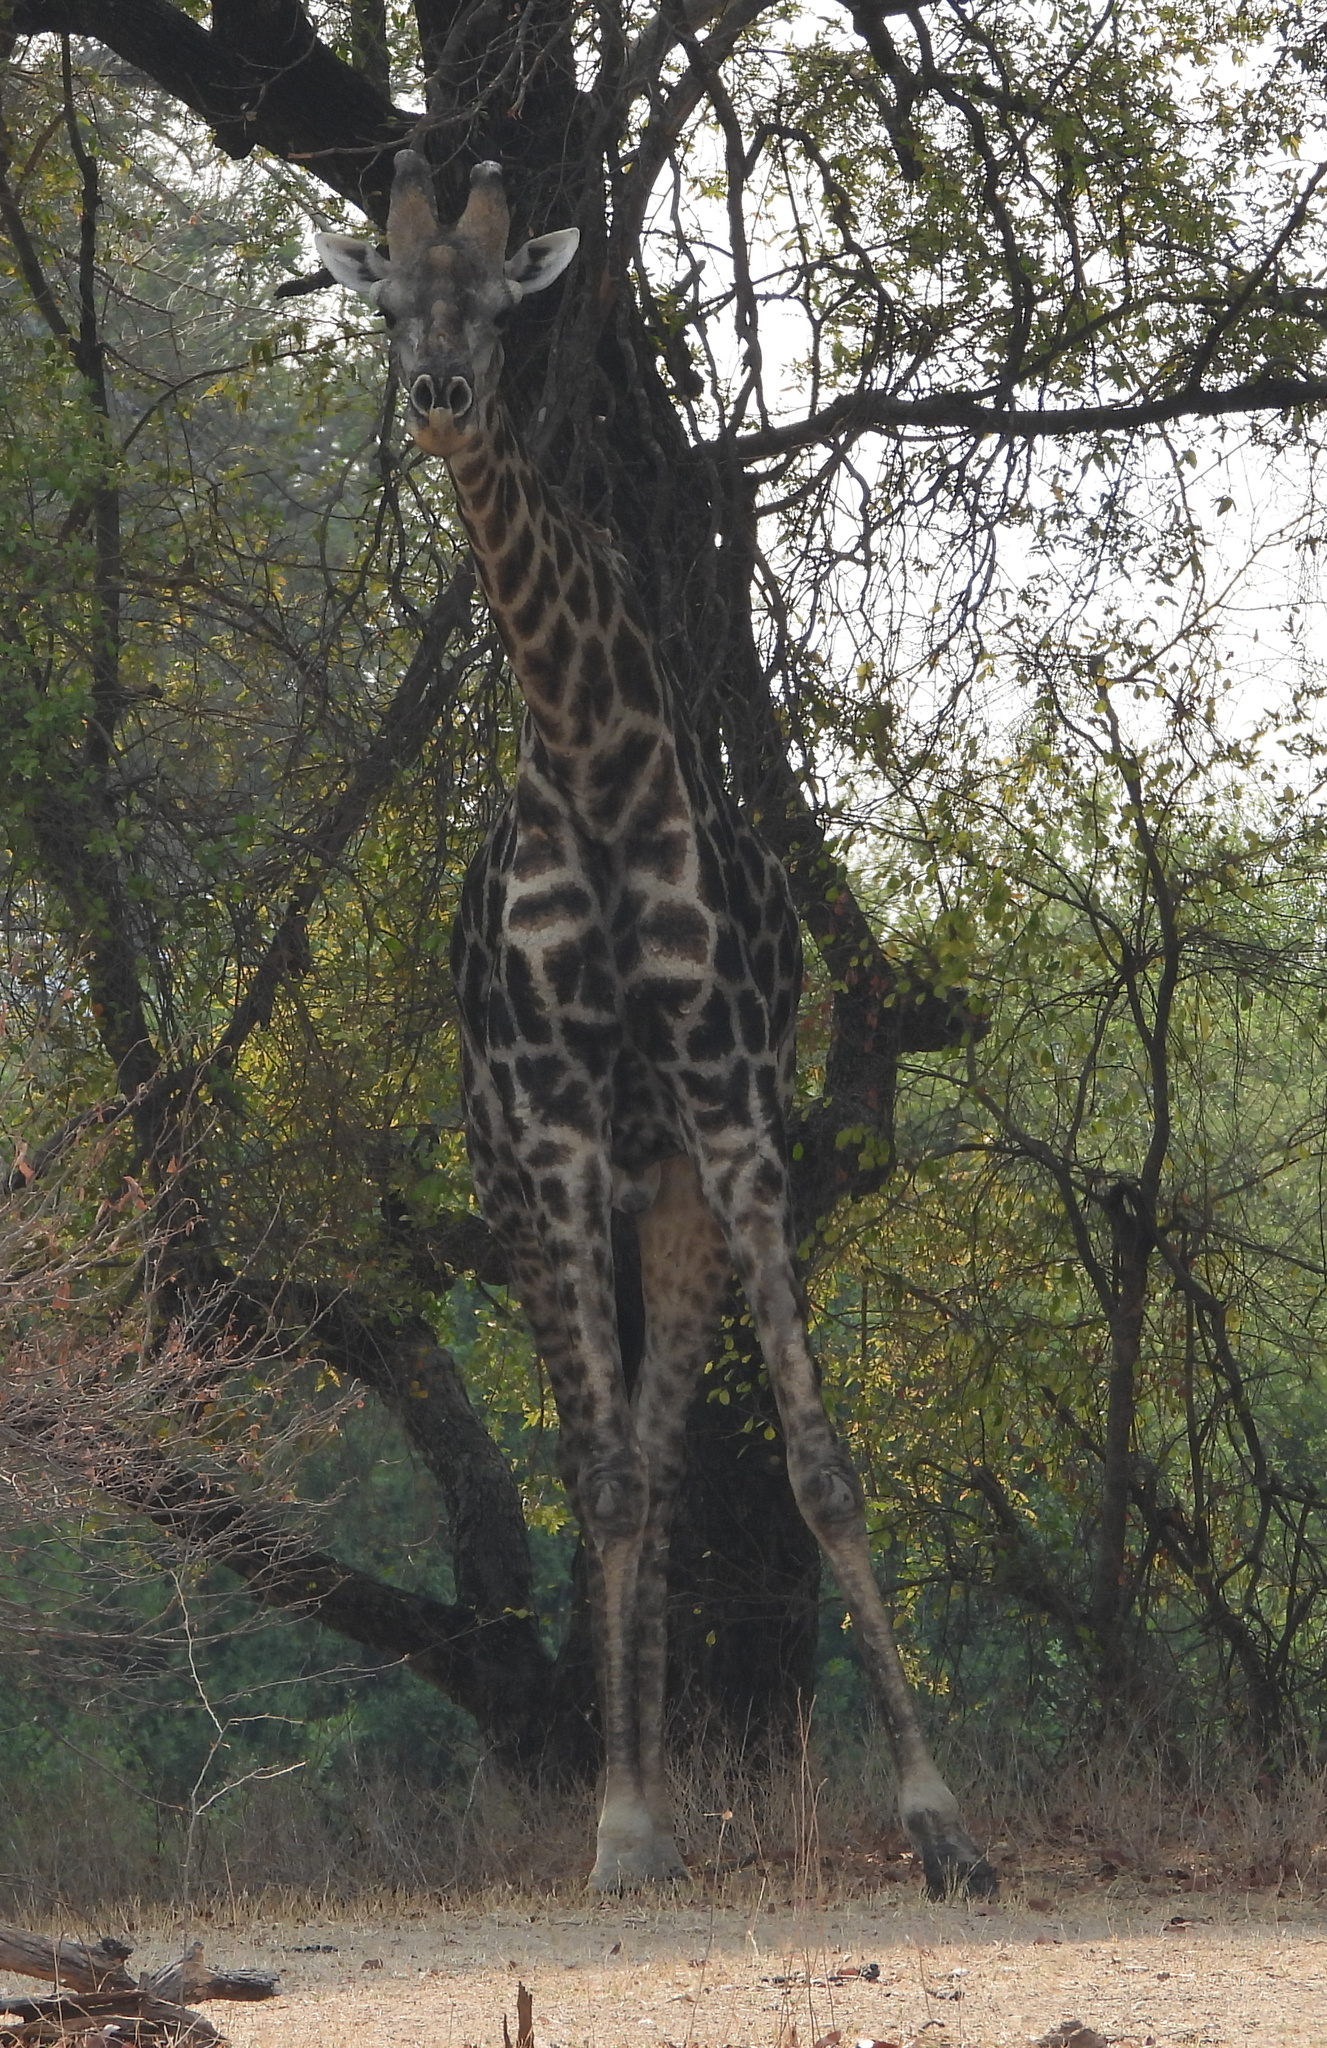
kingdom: Animalia
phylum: Chordata
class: Mammalia
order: Artiodactyla
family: Giraffidae
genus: Giraffa
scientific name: Giraffa giraffa
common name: Southern giraffe
